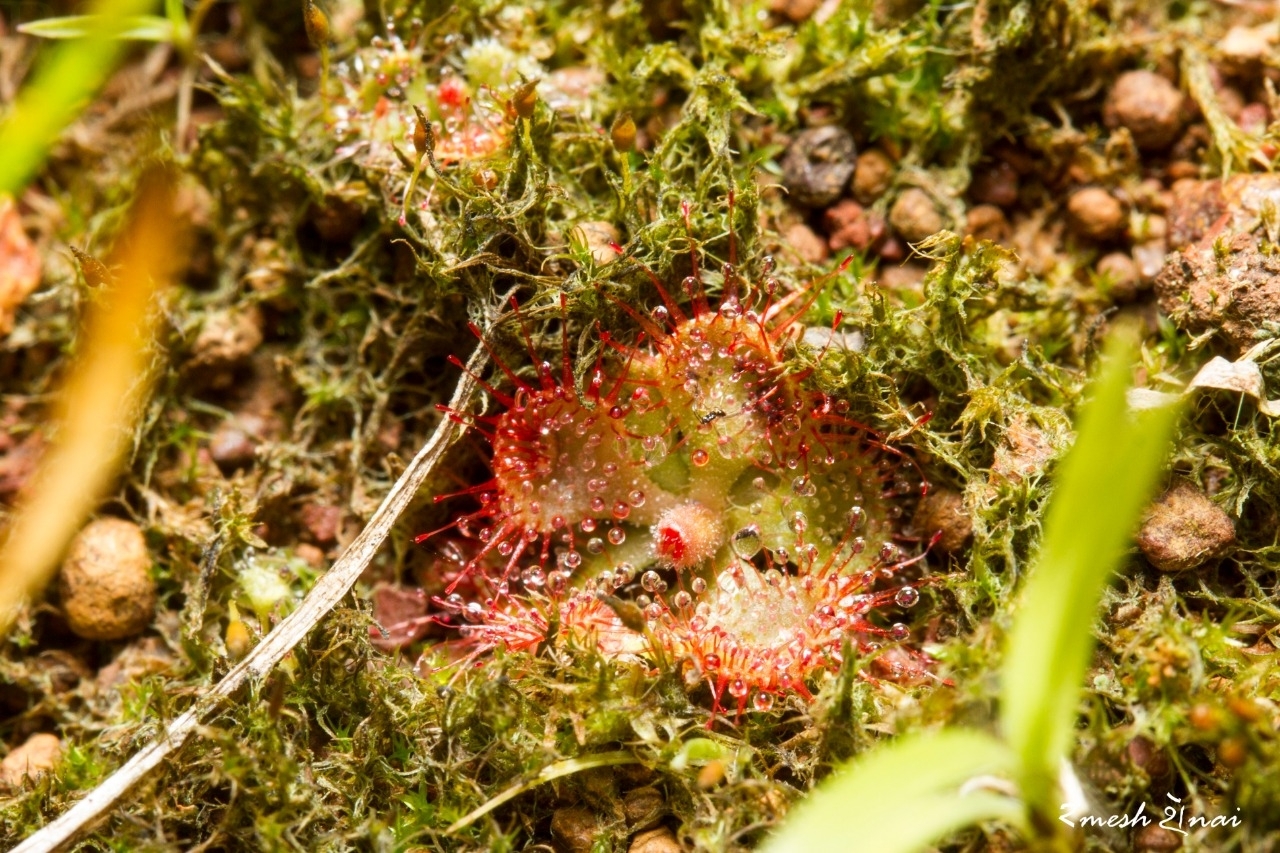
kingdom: Plantae
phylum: Tracheophyta
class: Magnoliopsida
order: Caryophyllales
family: Droseraceae
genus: Drosera
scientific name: Drosera spatulata
